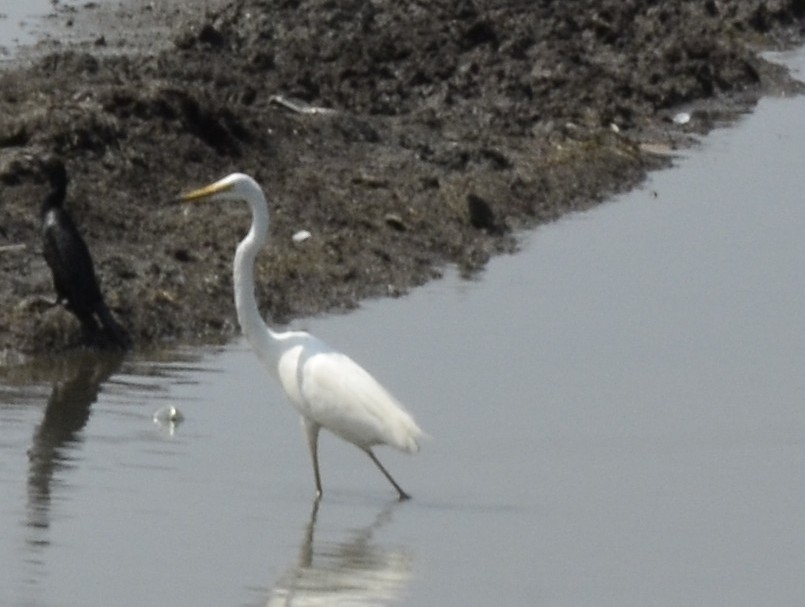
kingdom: Animalia
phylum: Chordata
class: Aves
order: Pelecaniformes
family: Ardeidae
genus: Ardea
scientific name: Ardea alba
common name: Great egret
